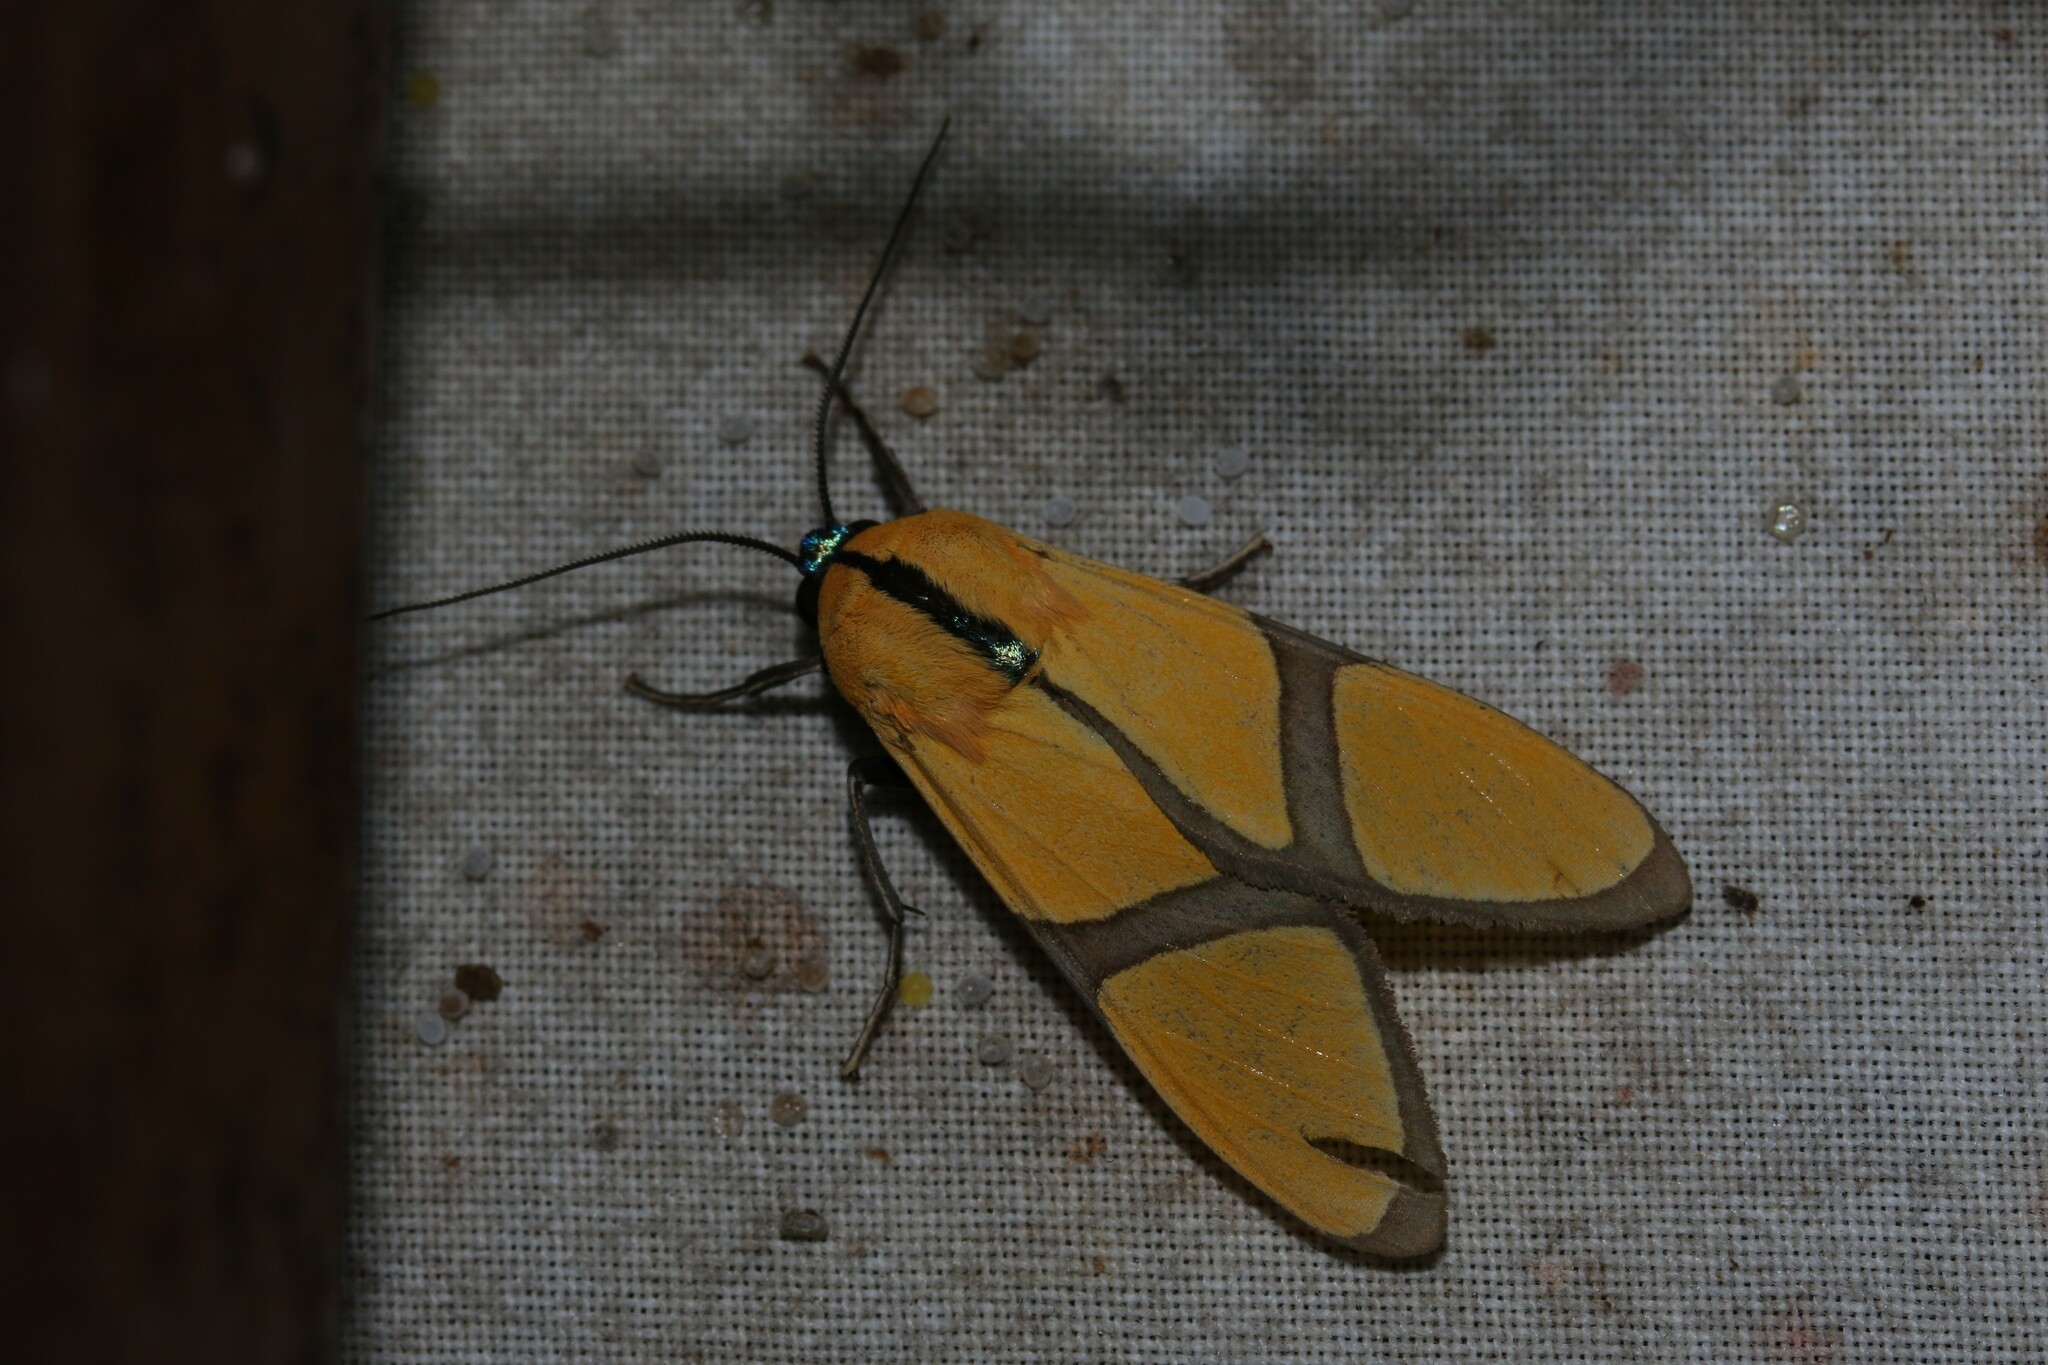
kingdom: Animalia
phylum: Arthropoda
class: Insecta
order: Lepidoptera
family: Erebidae
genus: Ormetica
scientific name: Ormetica ameoides
